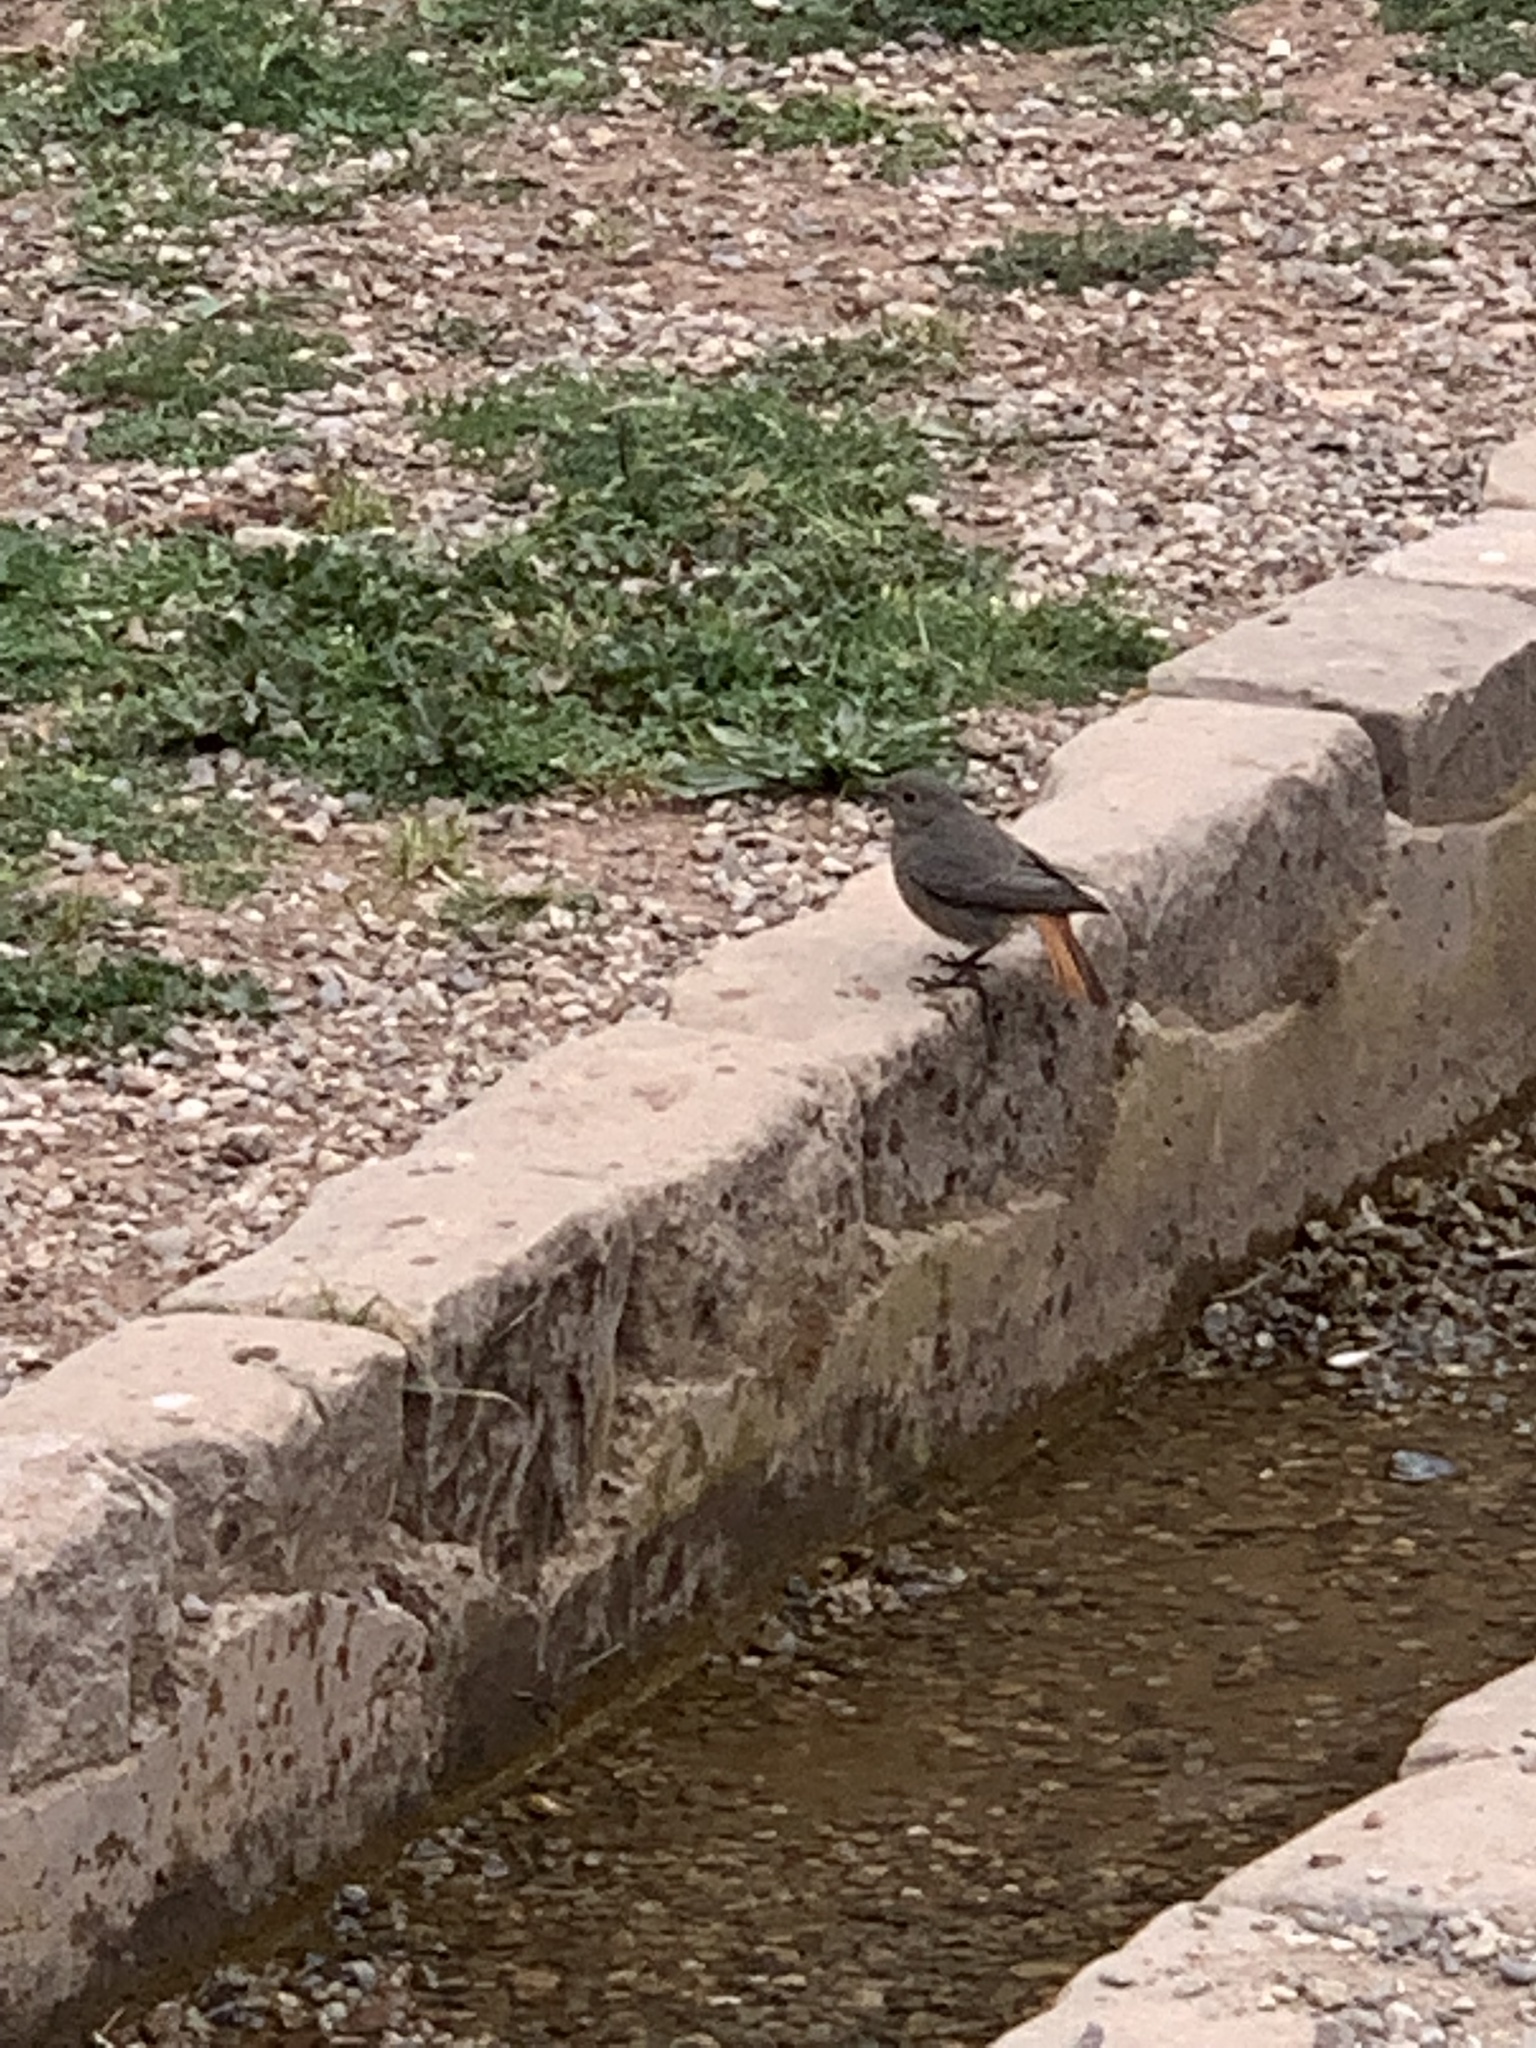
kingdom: Animalia
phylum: Chordata
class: Aves
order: Passeriformes
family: Muscicapidae
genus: Phoenicurus
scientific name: Phoenicurus ochruros
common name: Black redstart
